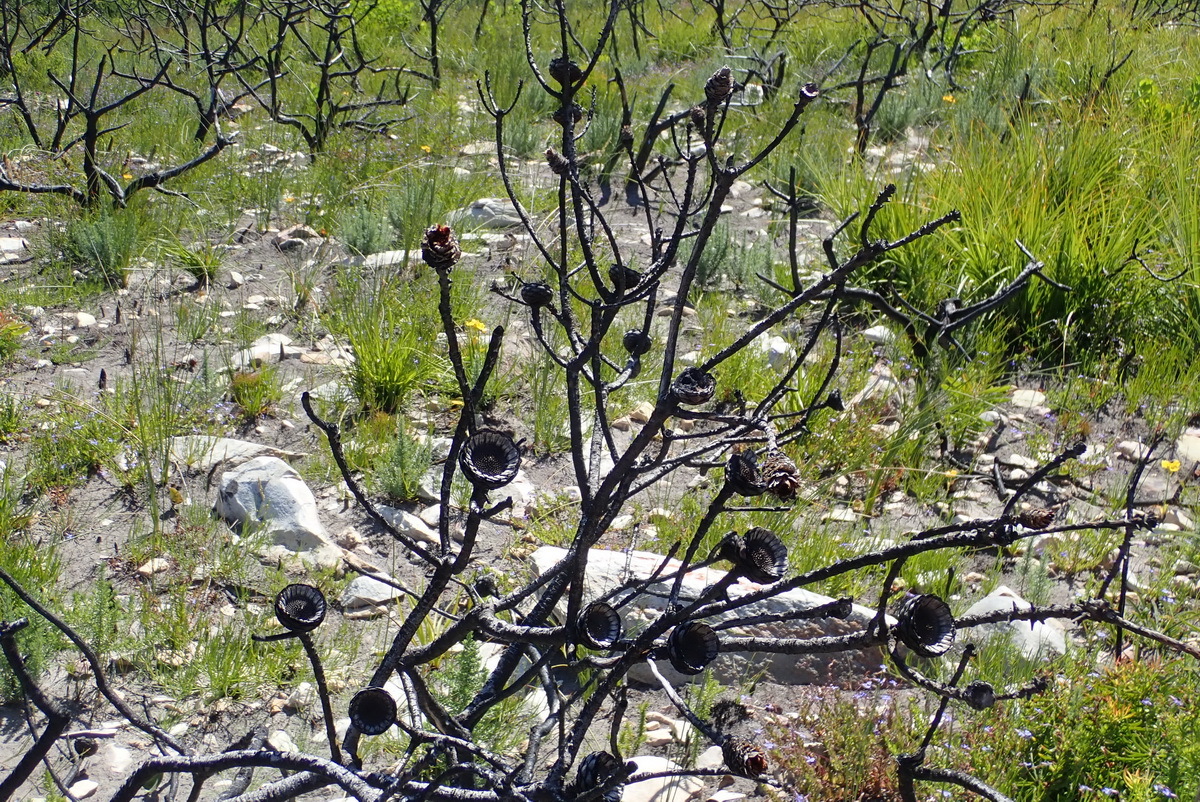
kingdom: Plantae
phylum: Tracheophyta
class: Magnoliopsida
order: Proteales
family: Proteaceae
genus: Protea
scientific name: Protea neriifolia
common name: Blue sugarbush
